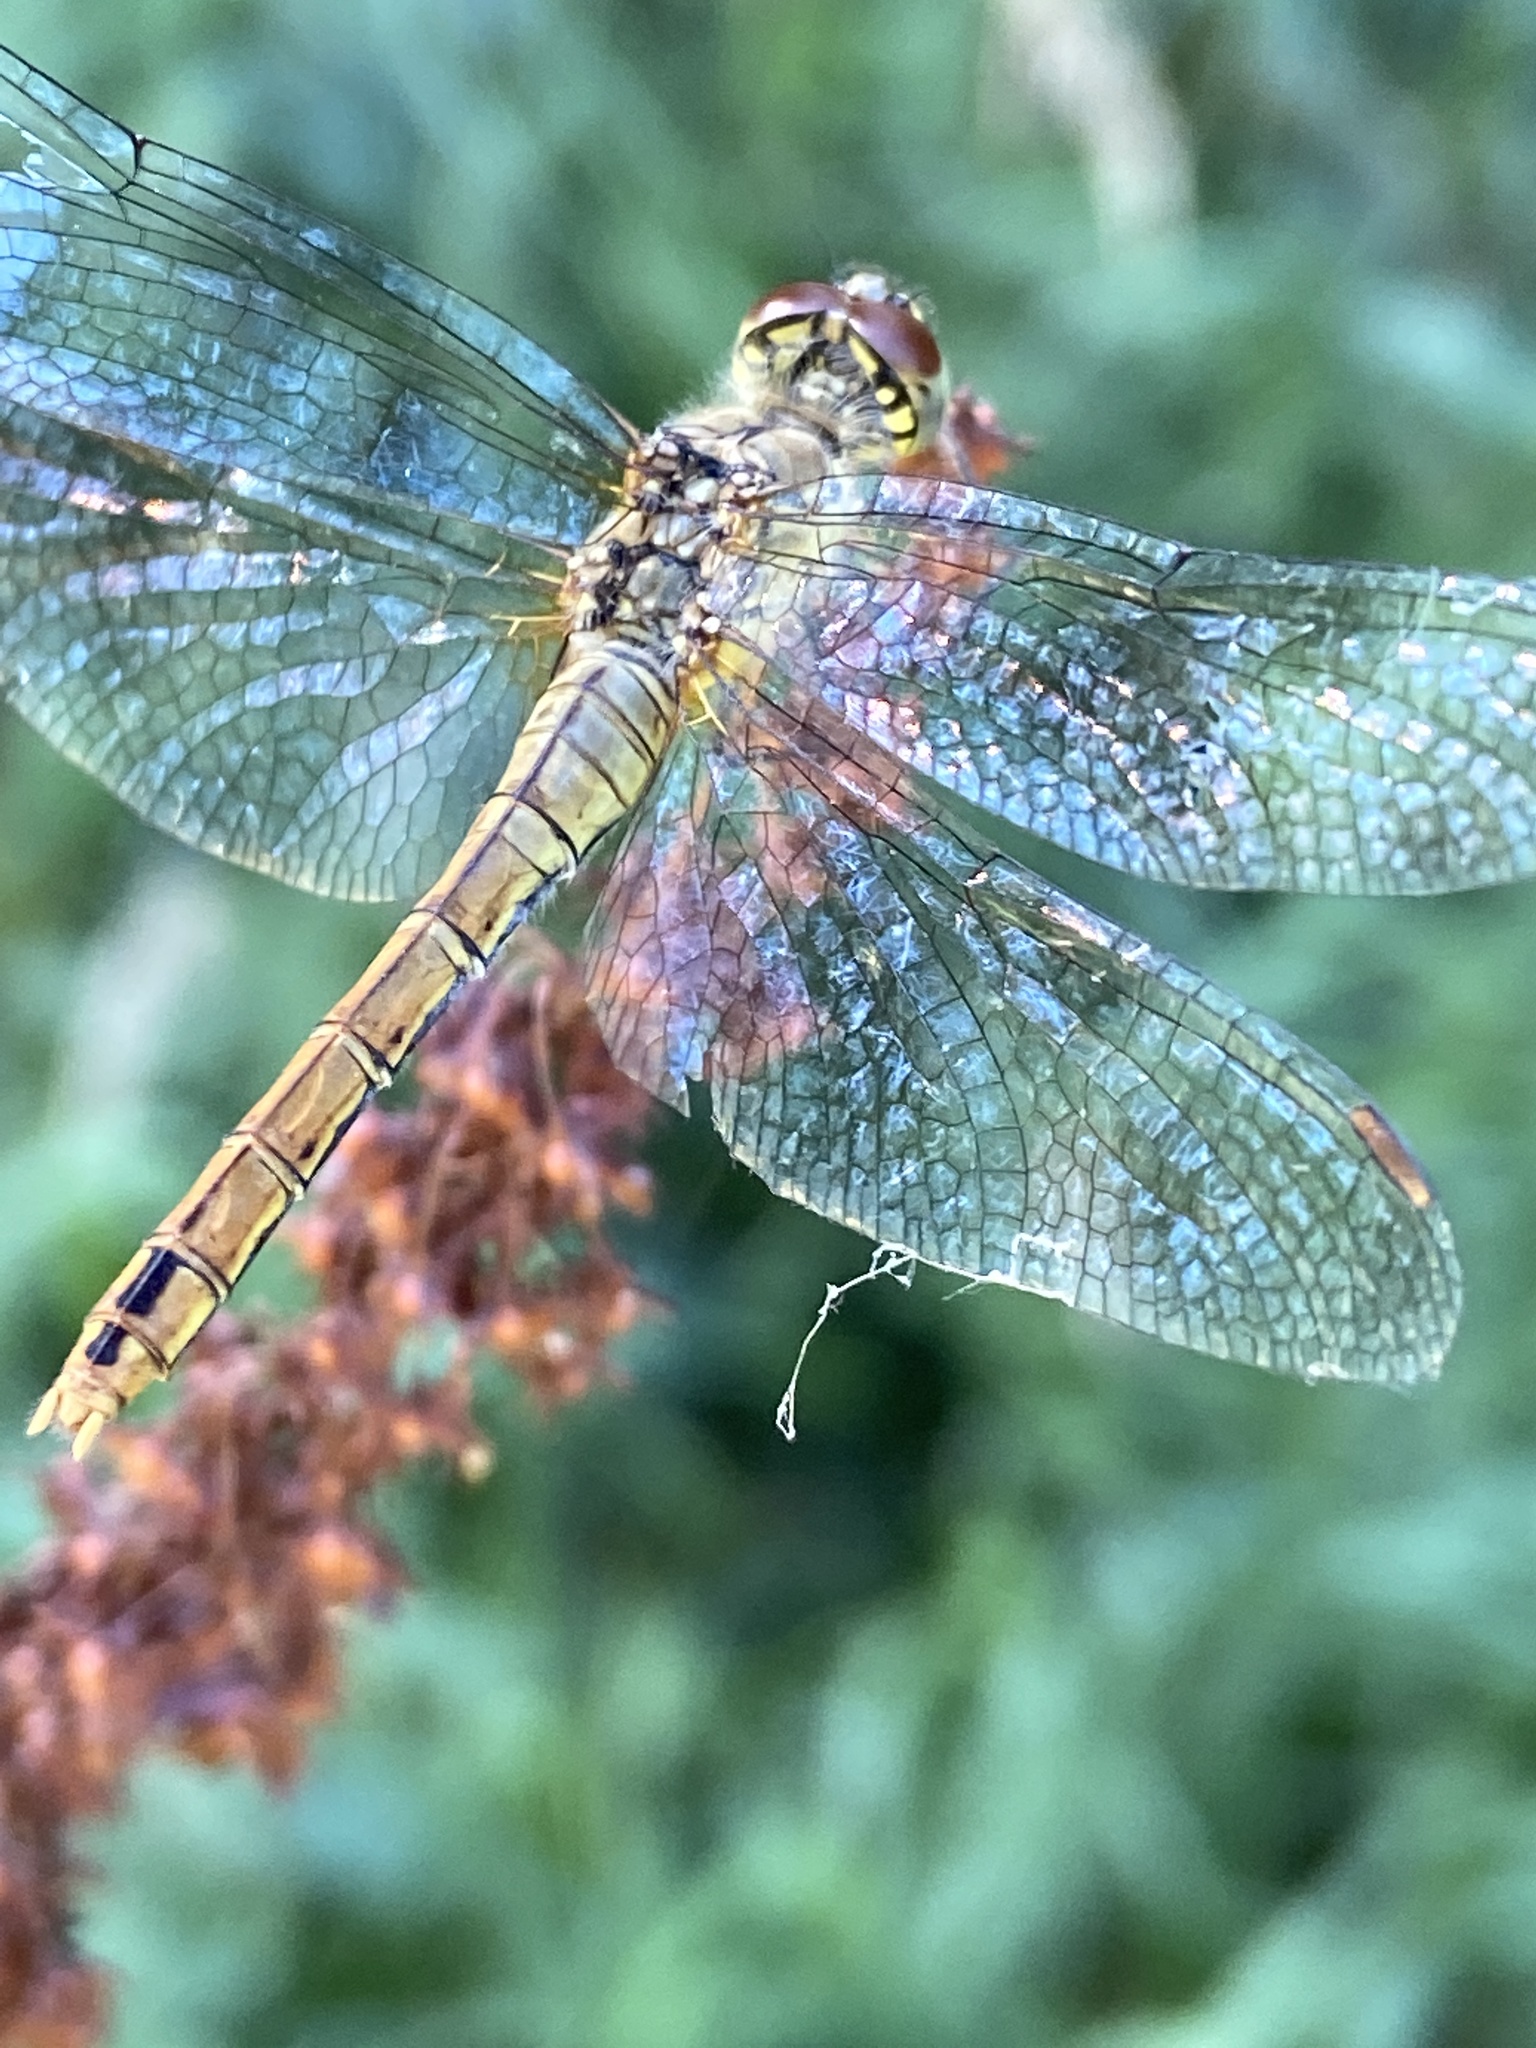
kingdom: Animalia
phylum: Arthropoda
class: Insecta
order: Odonata
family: Libellulidae
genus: Sympetrum
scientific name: Sympetrum sanguineum
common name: Ruddy darter
